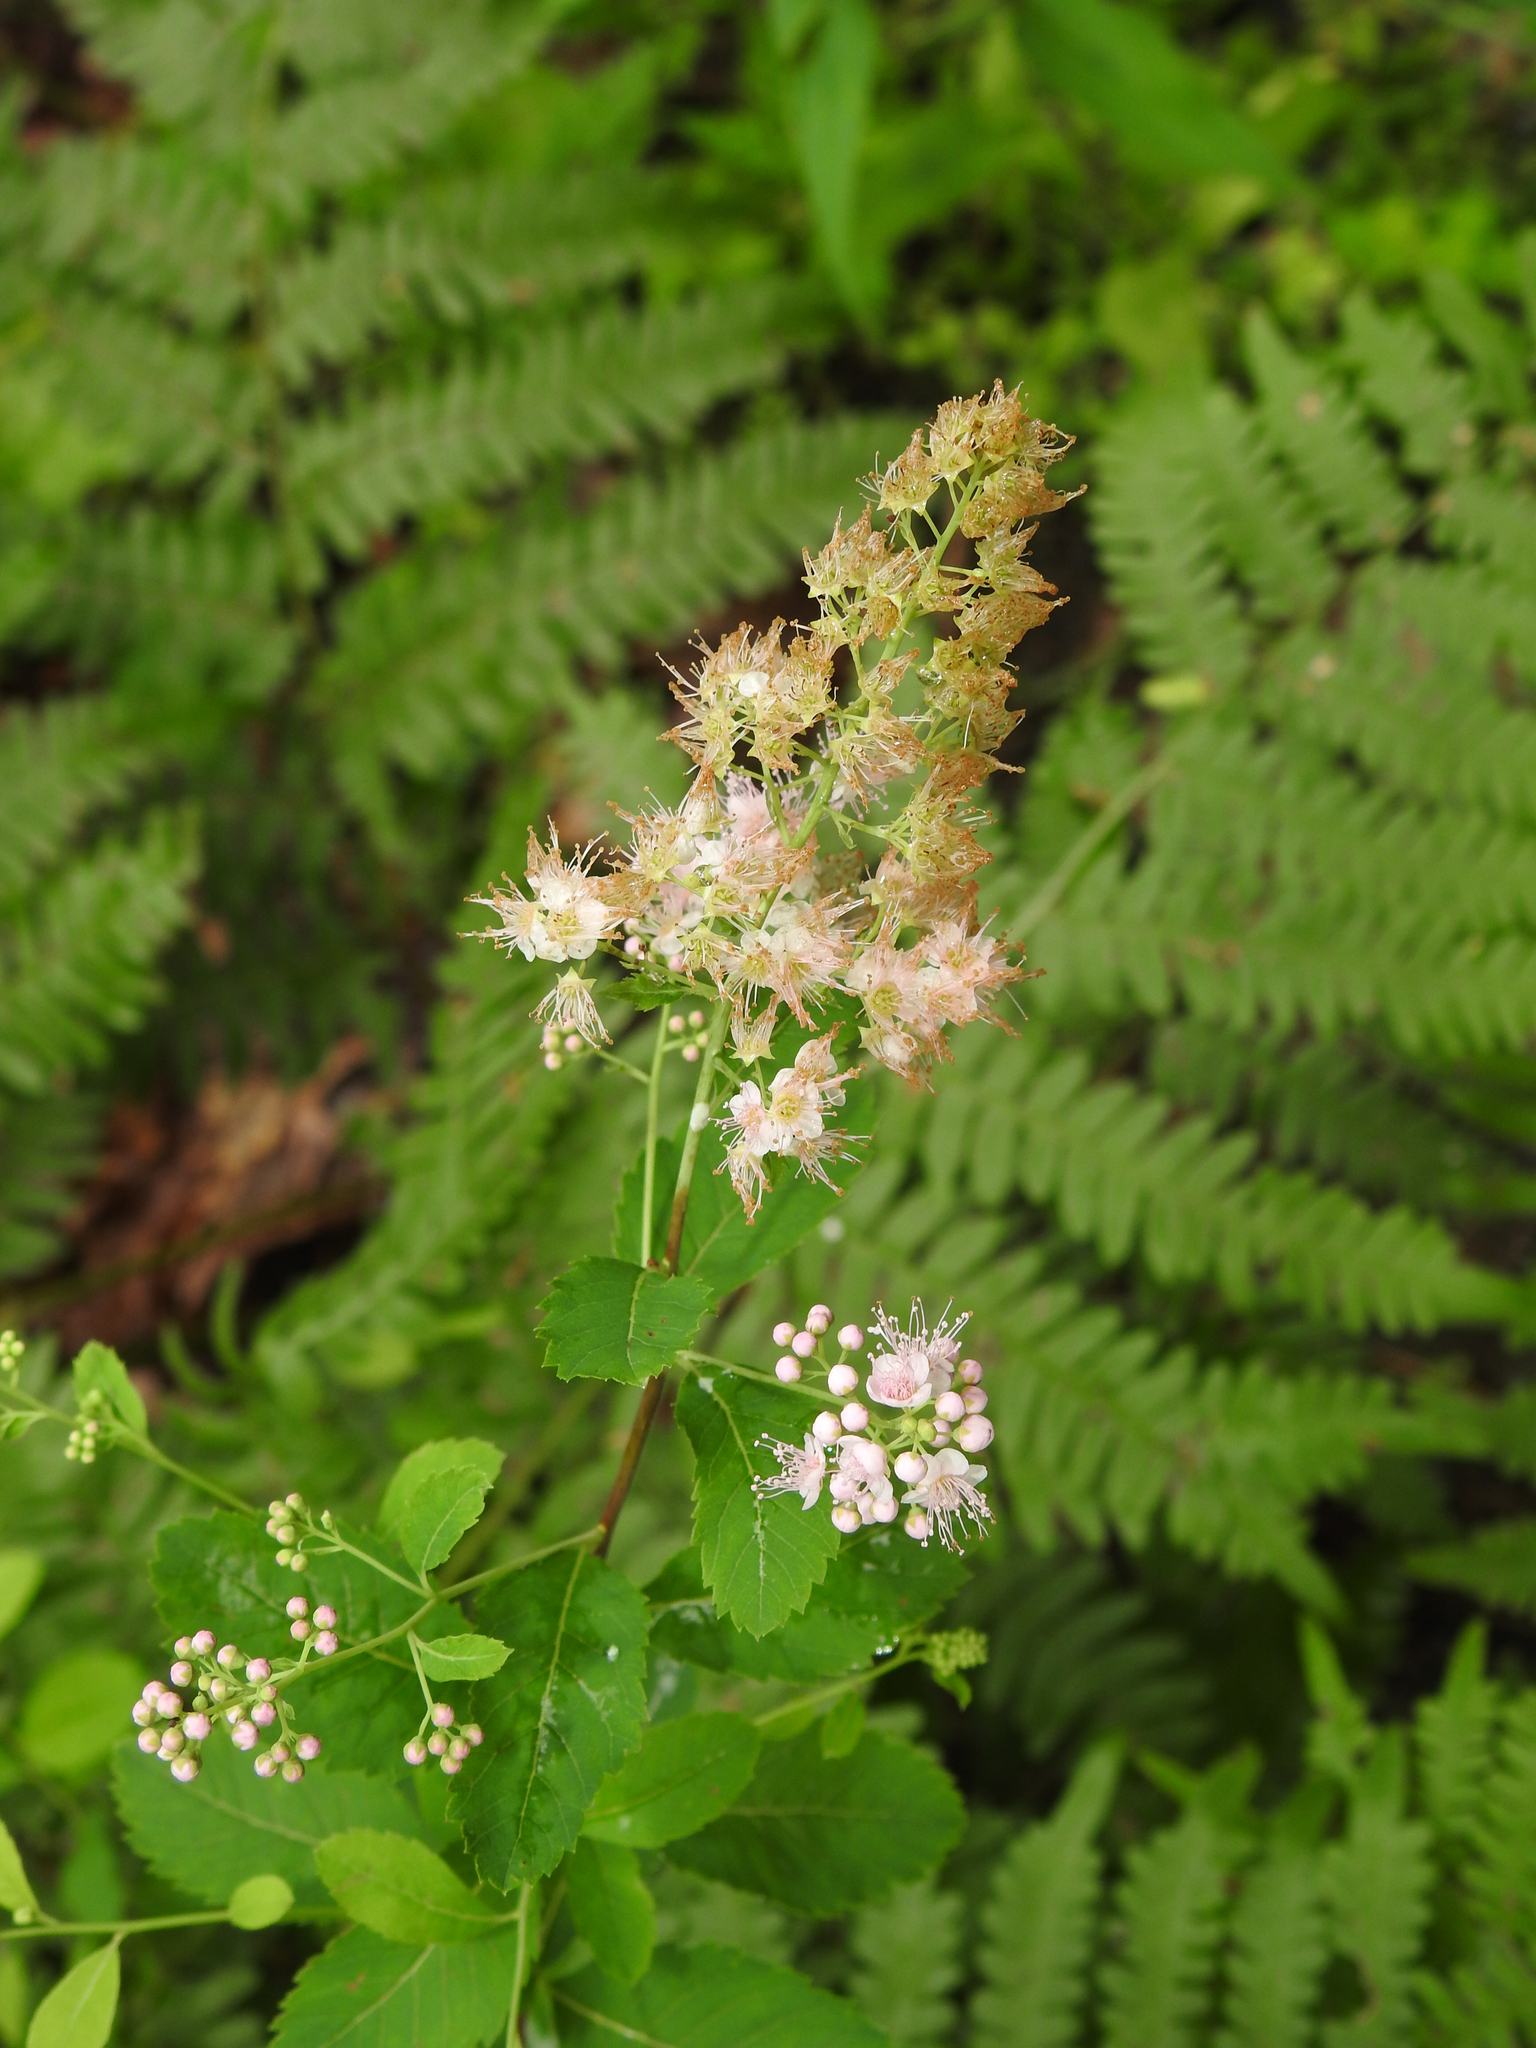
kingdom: Plantae
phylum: Tracheophyta
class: Magnoliopsida
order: Rosales
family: Rosaceae
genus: Spiraea
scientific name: Spiraea alba
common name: Pale bridewort
